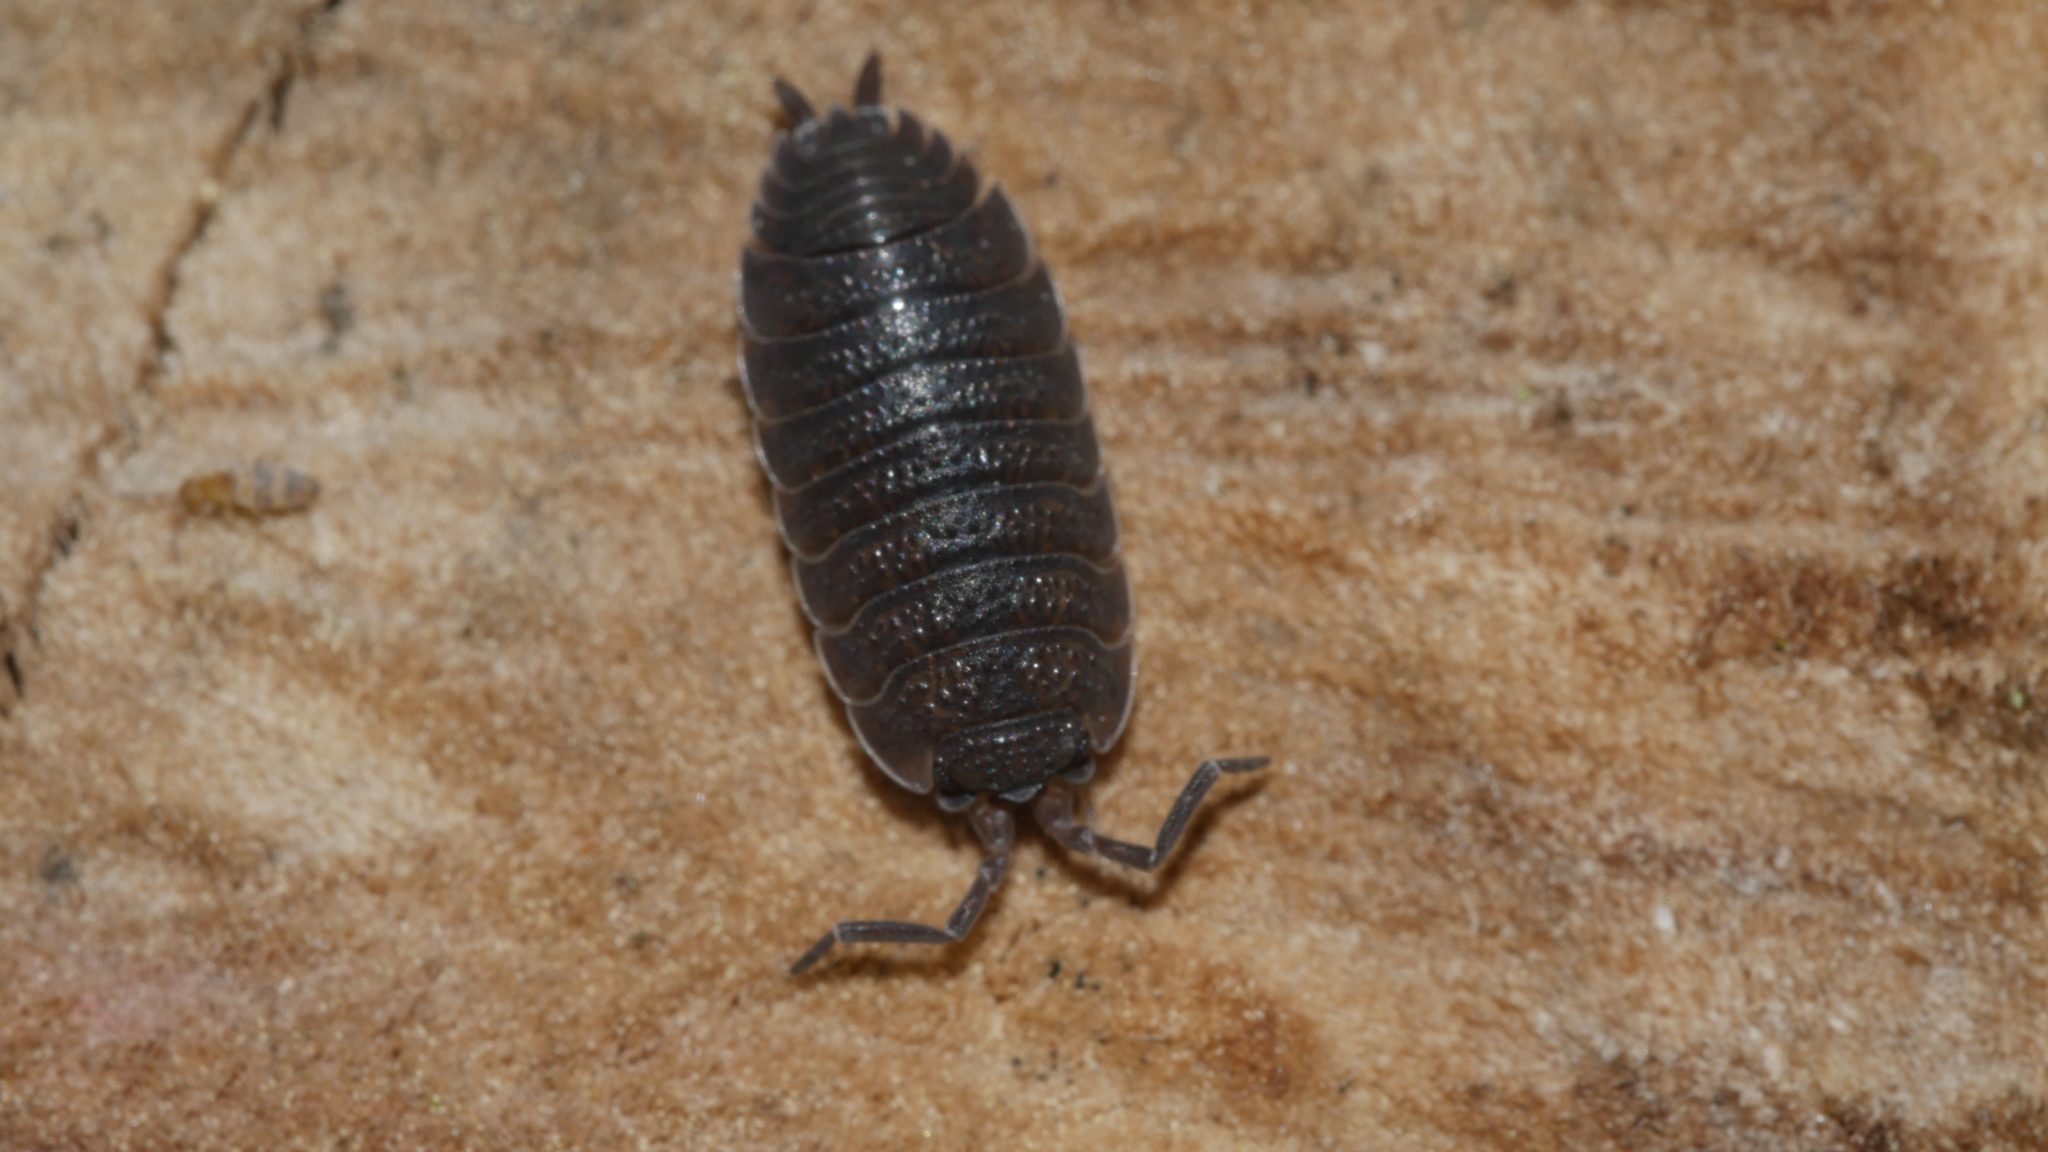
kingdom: Animalia
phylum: Arthropoda
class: Malacostraca
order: Isopoda
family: Porcellionidae
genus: Porcellio
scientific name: Porcellio scaber
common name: Common rough woodlouse
